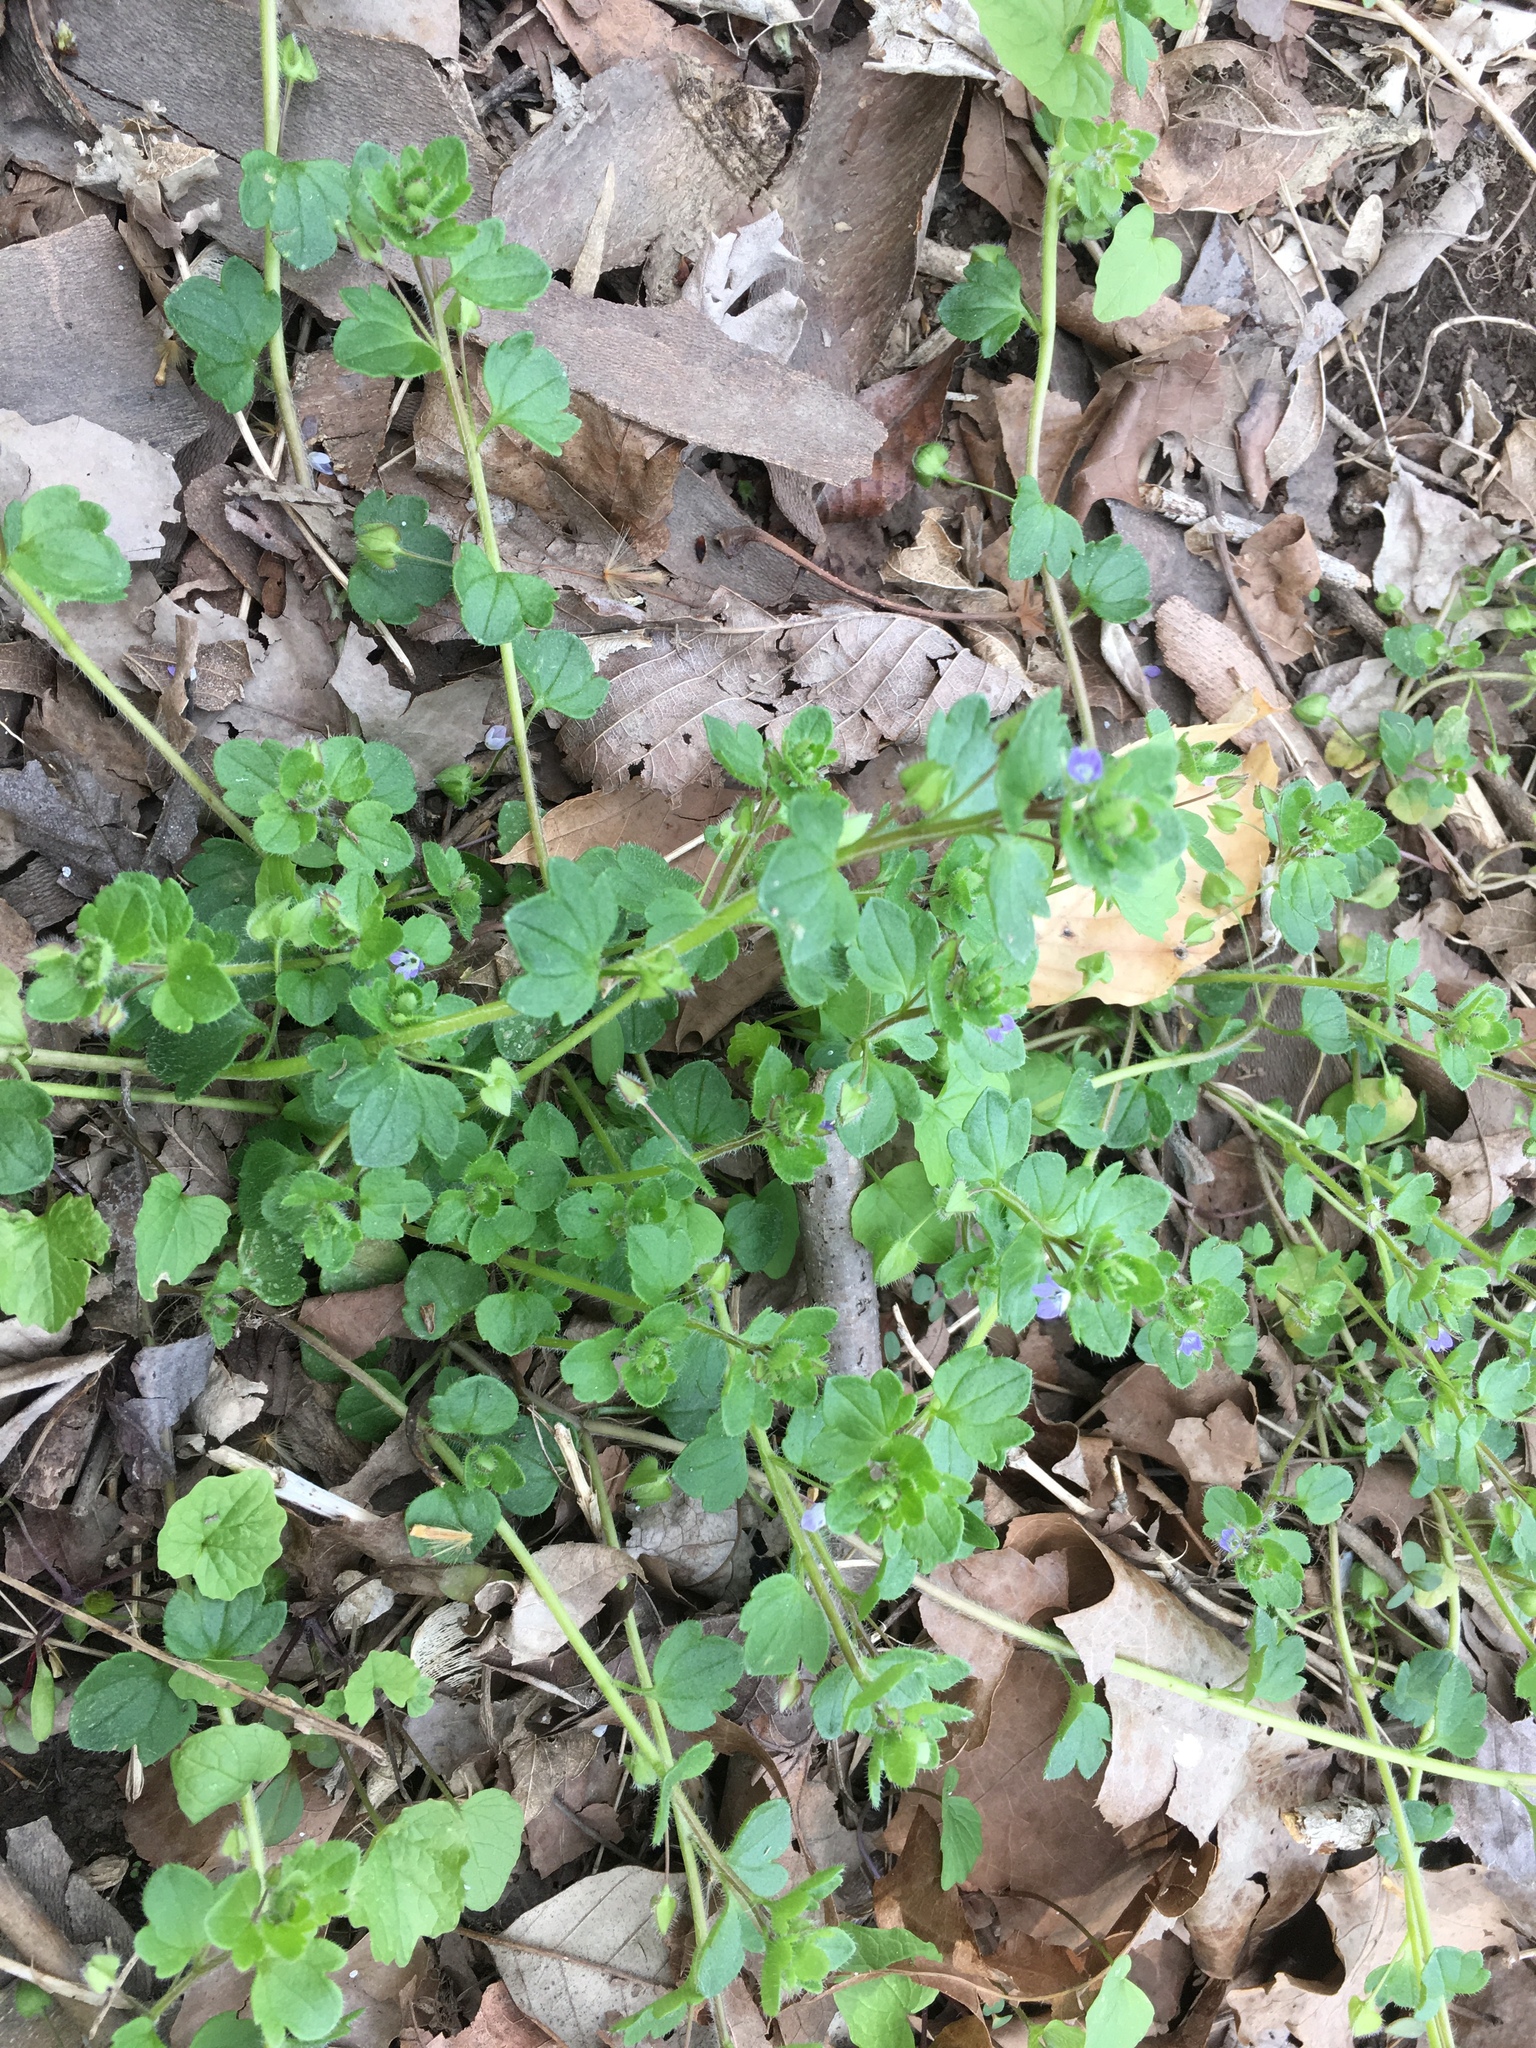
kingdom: Plantae
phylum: Tracheophyta
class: Magnoliopsida
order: Lamiales
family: Plantaginaceae
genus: Veronica
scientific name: Veronica hederifolia
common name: Ivy-leaved speedwell
